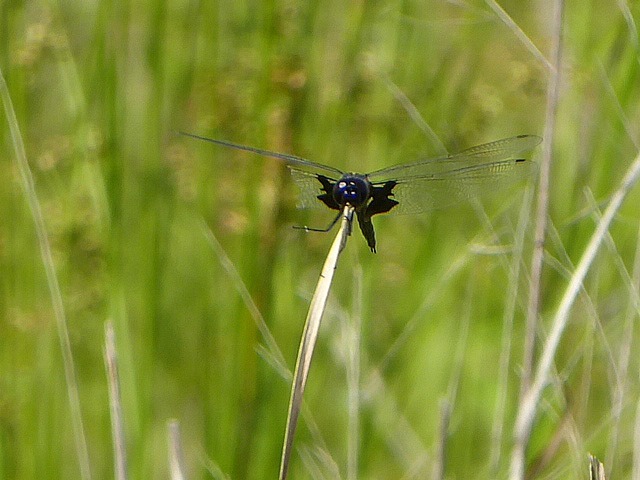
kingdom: Animalia
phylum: Arthropoda
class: Insecta
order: Odonata
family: Libellulidae
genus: Tramea
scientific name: Tramea lacerata
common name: Black saddlebags
